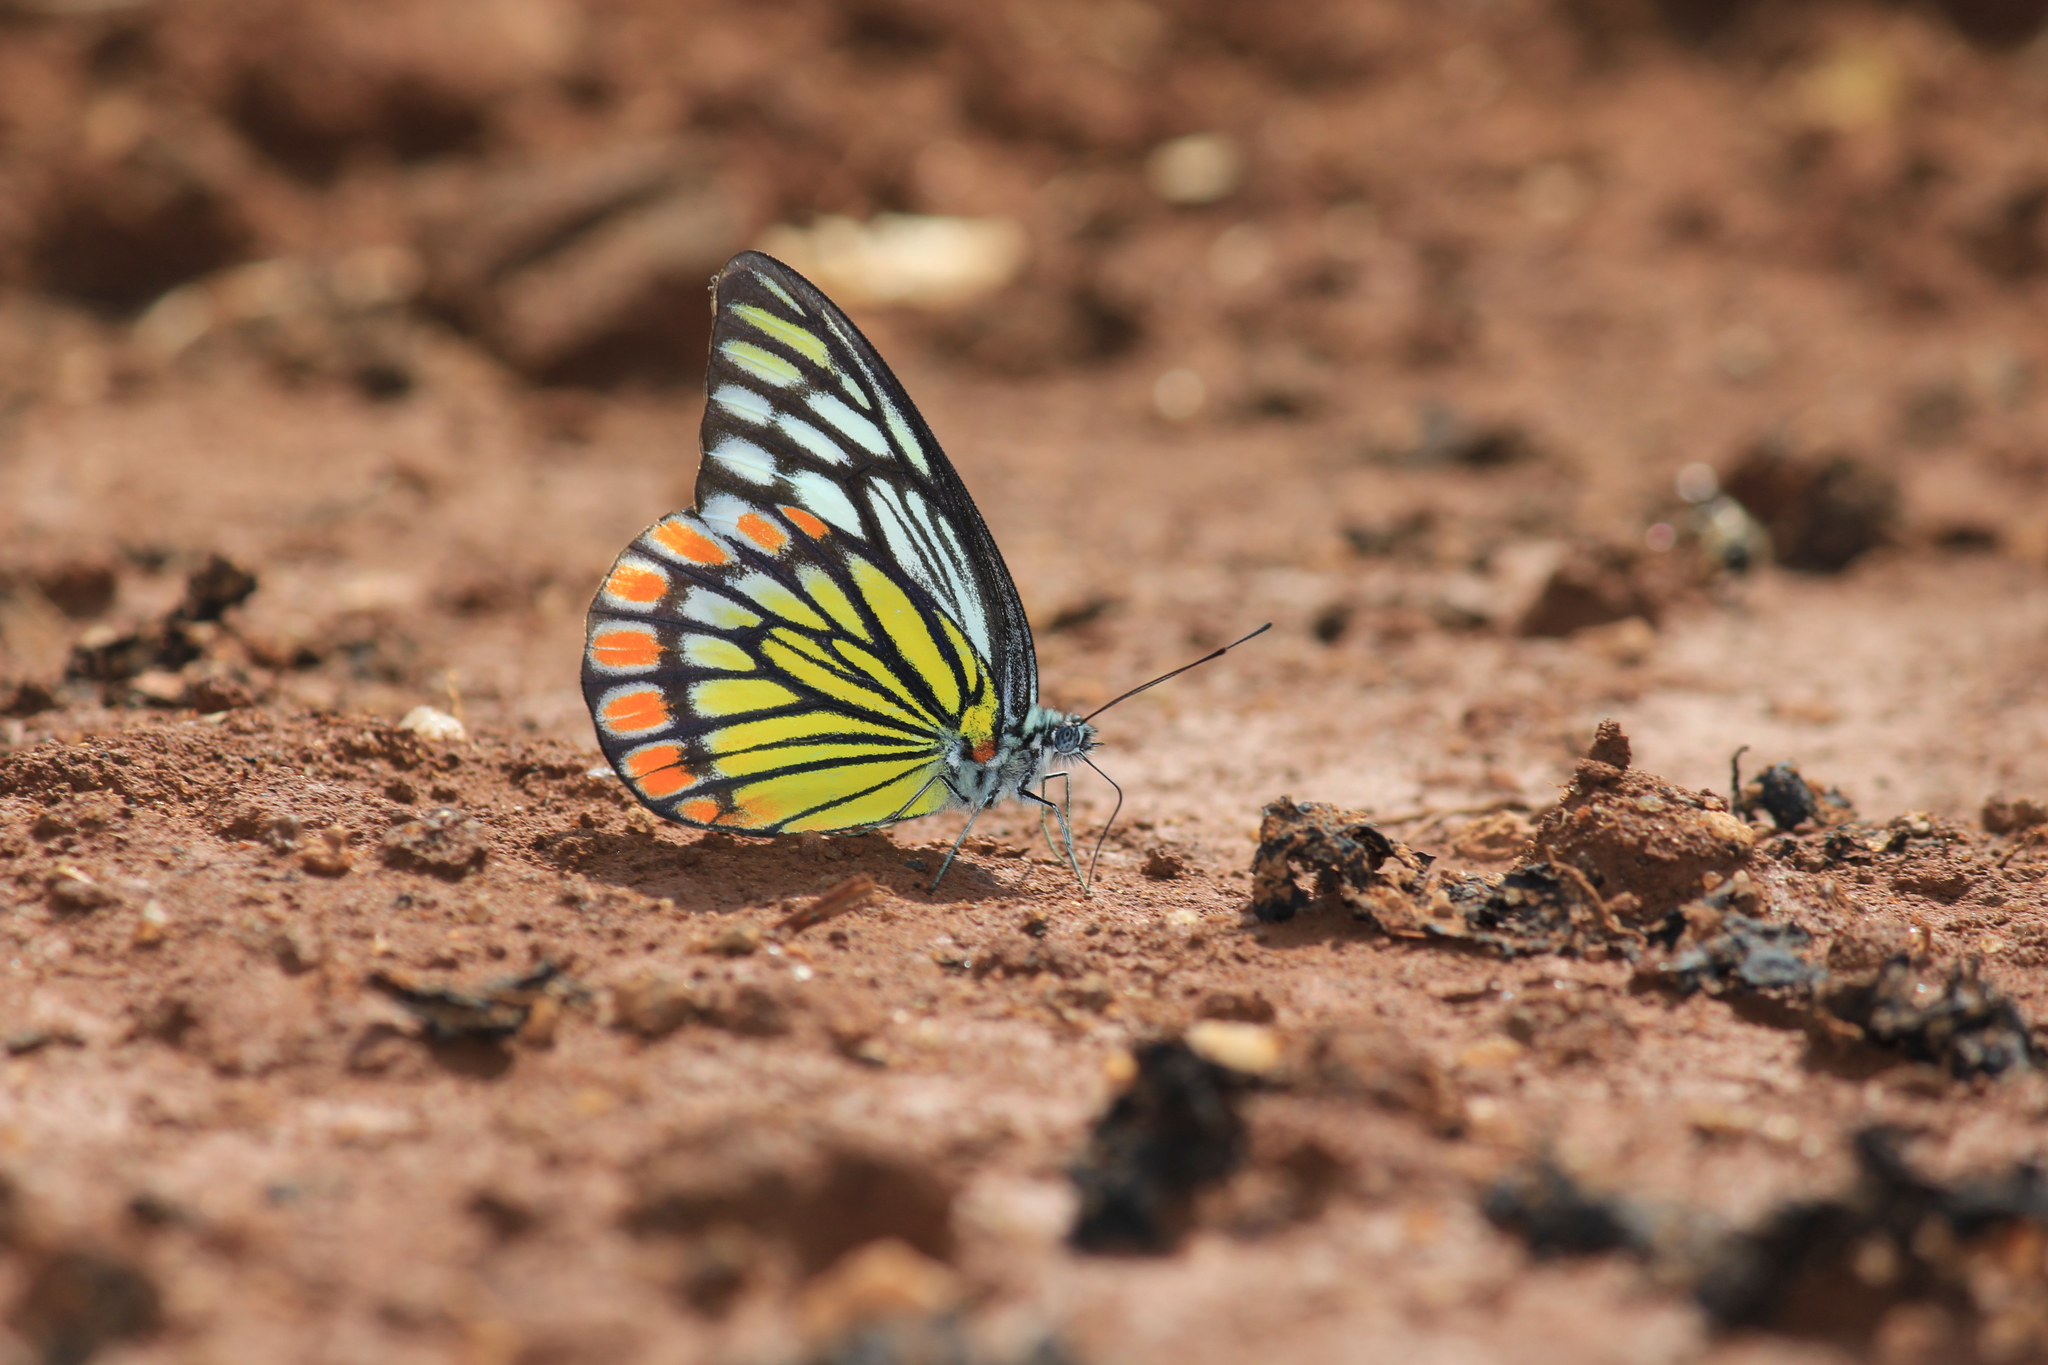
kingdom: Animalia
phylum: Arthropoda
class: Insecta
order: Lepidoptera
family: Pieridae
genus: Prioneris
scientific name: Prioneris sita
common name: Painted sawtooth
